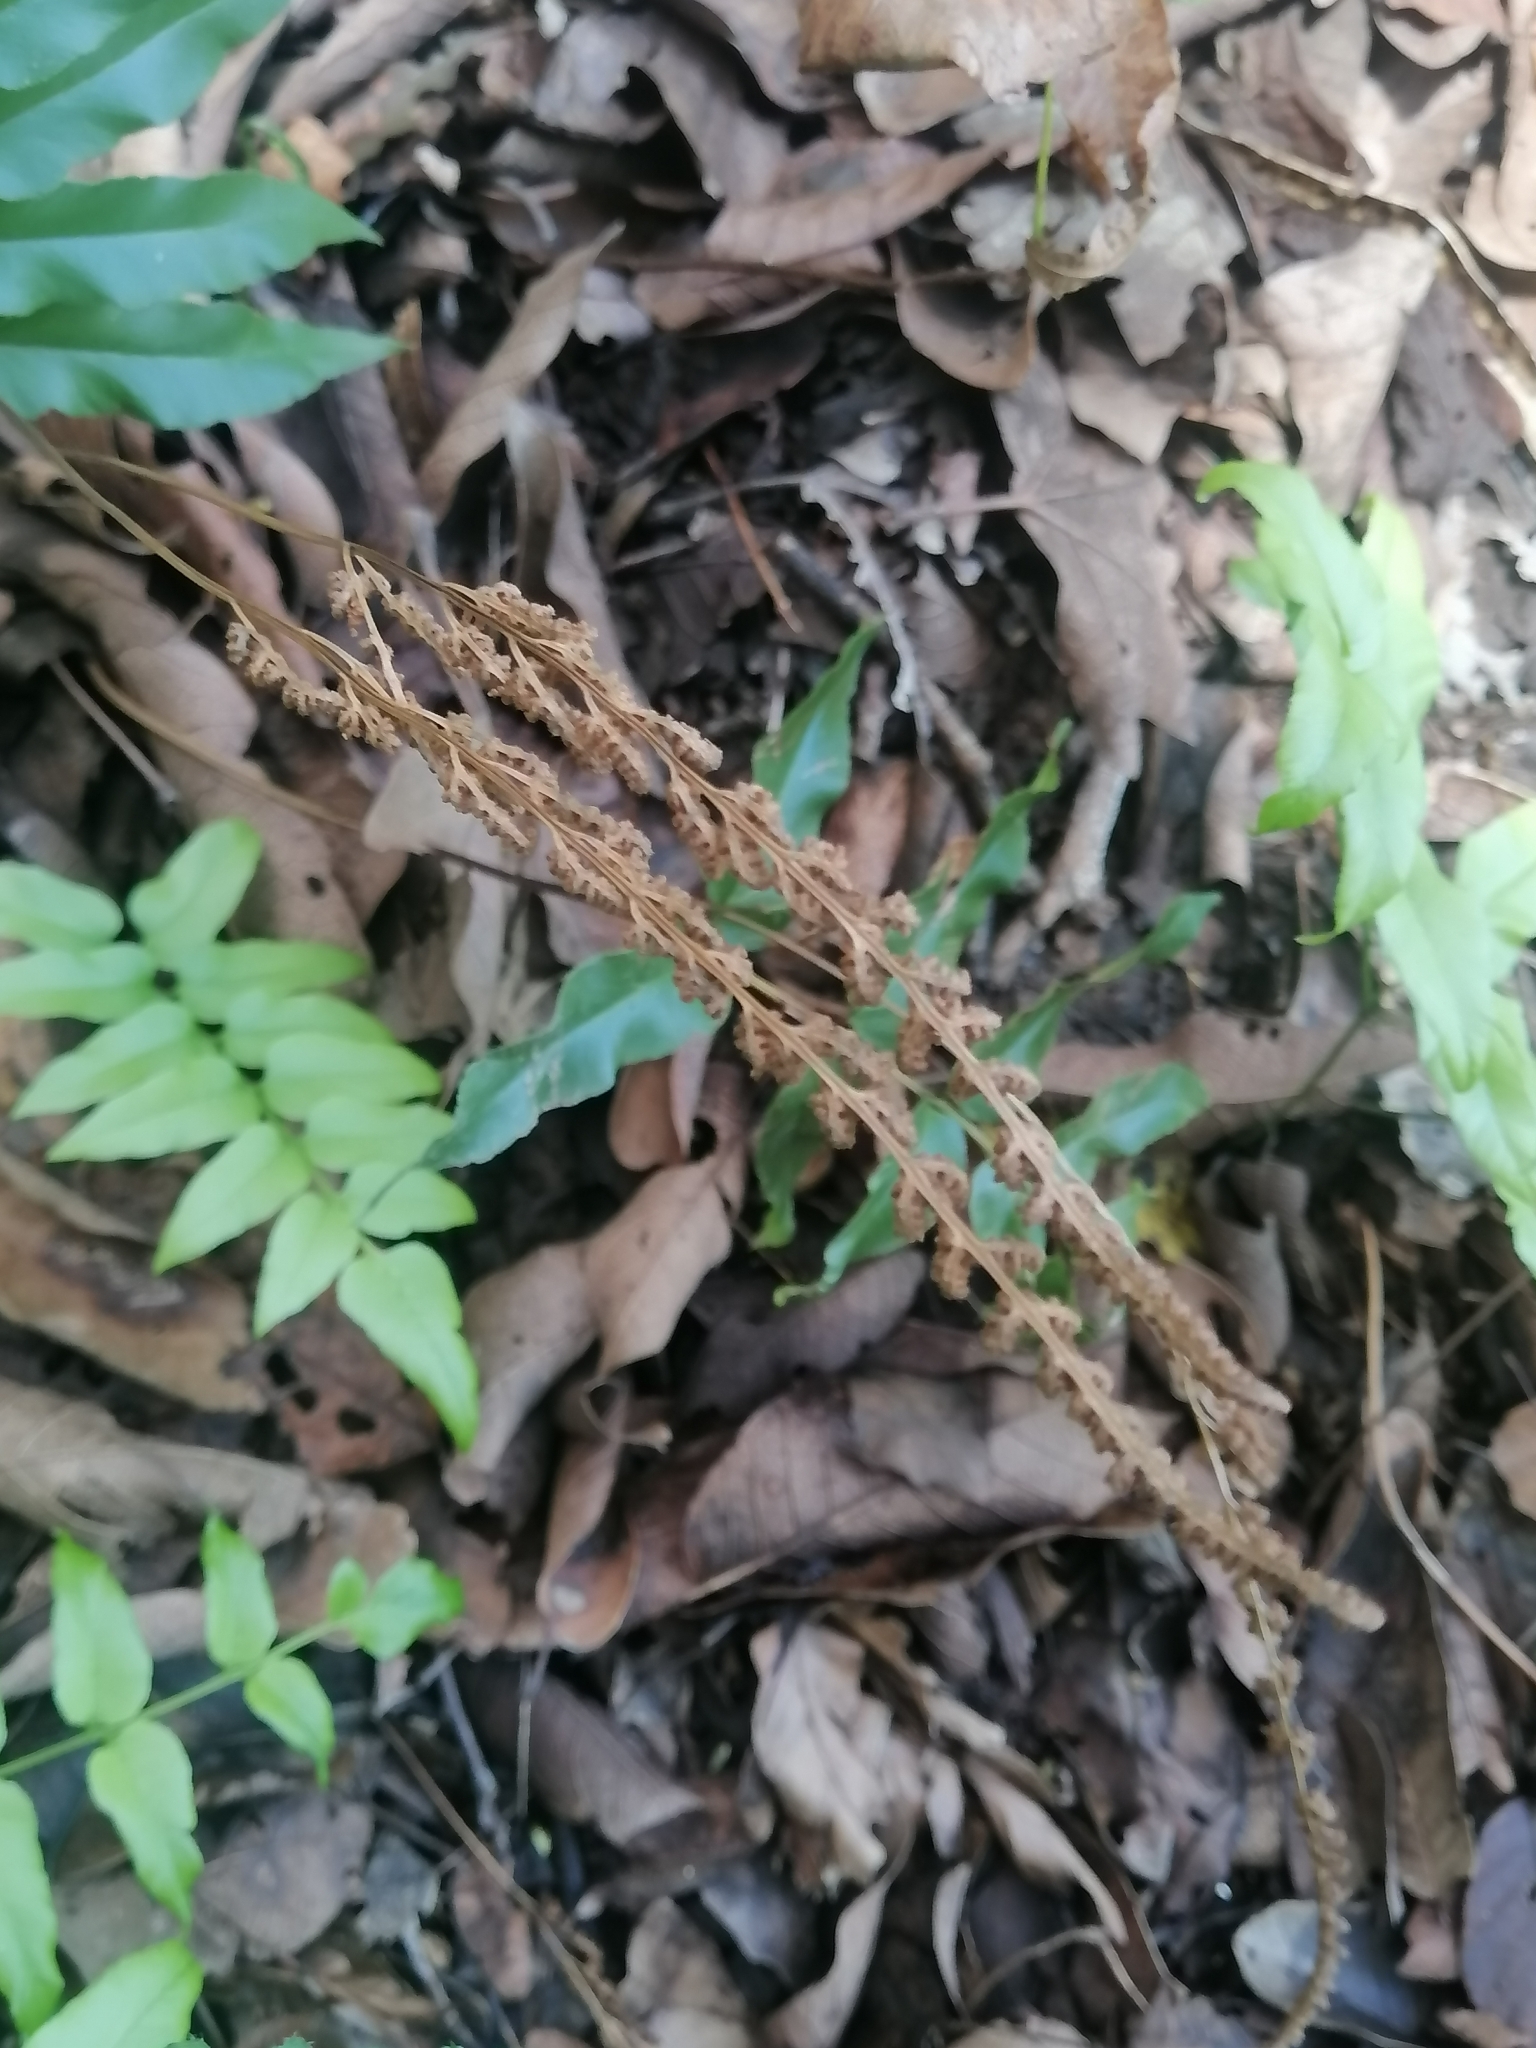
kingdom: Plantae
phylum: Tracheophyta
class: Polypodiopsida
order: Schizaeales
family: Anemiaceae
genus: Anemia
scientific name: Anemia mexicana
